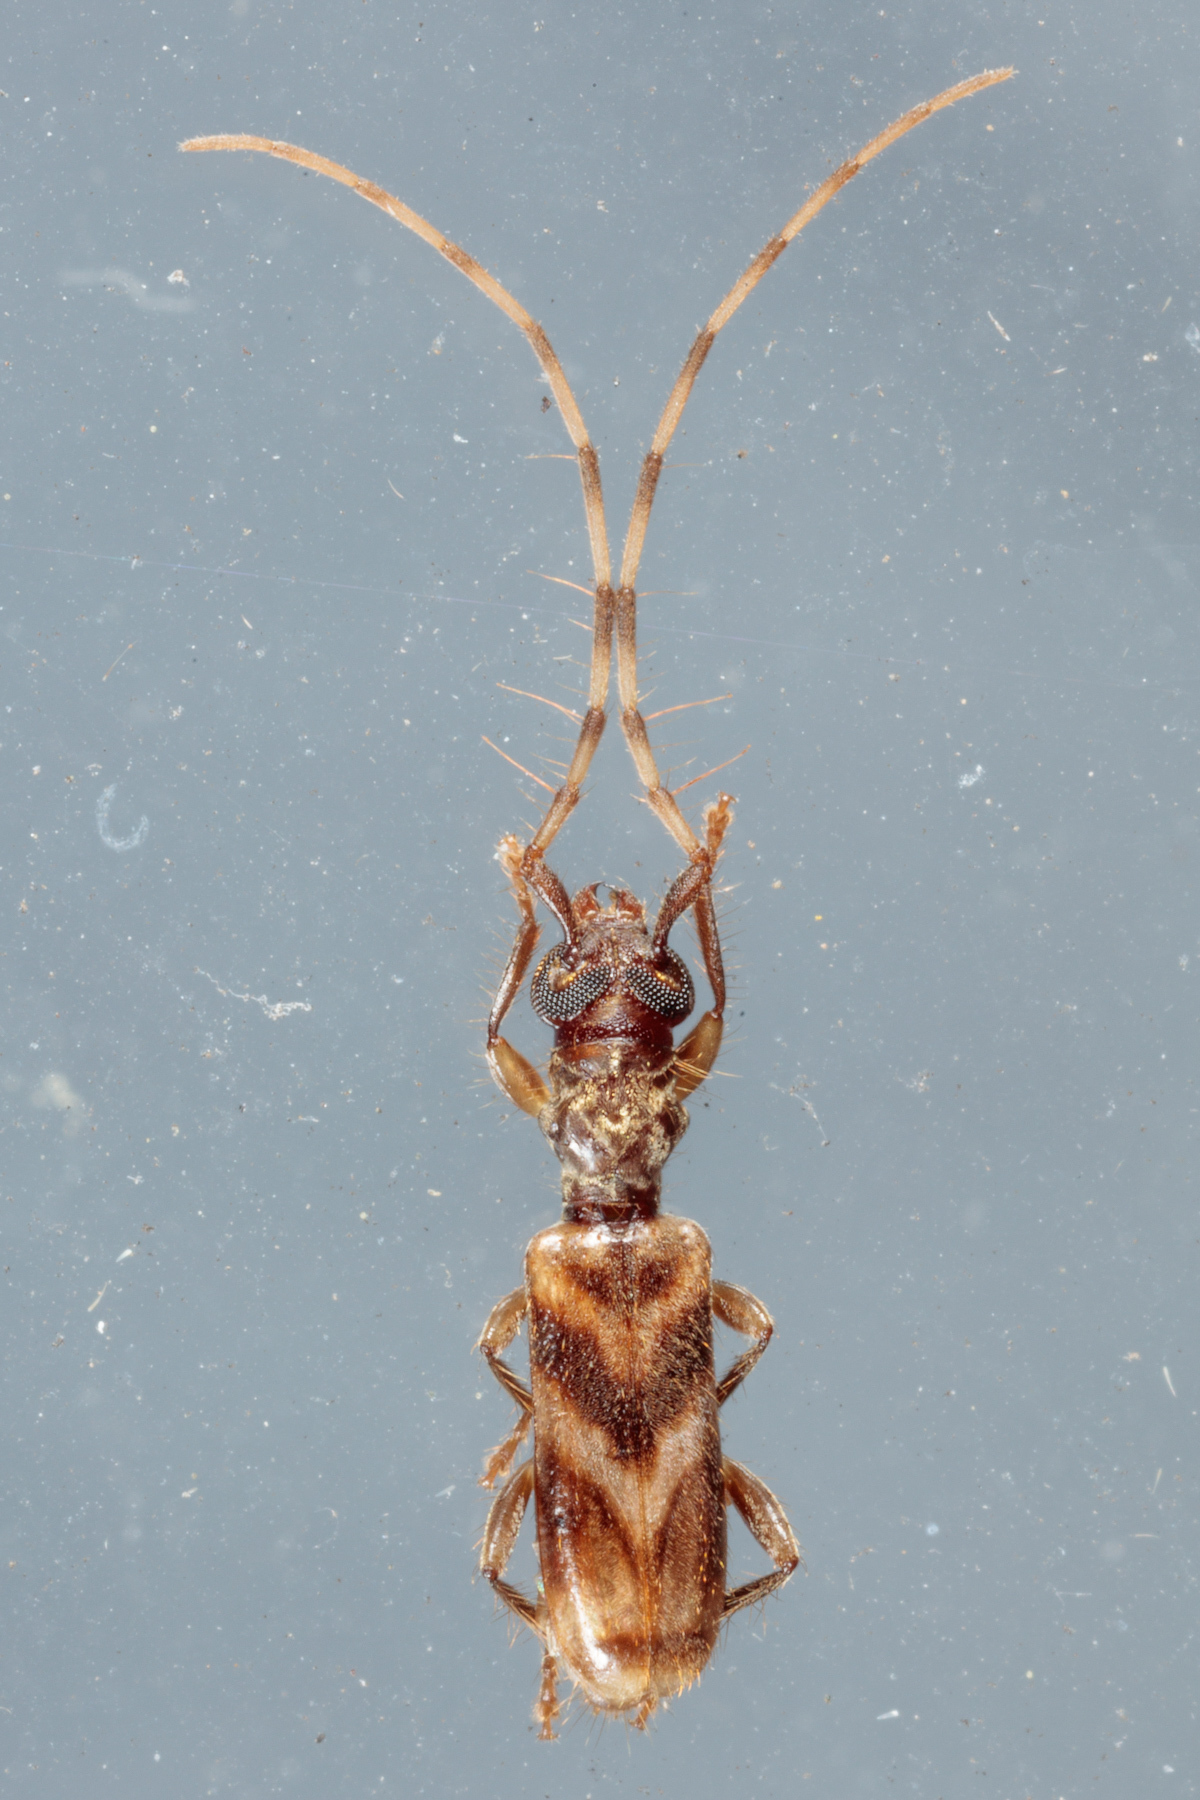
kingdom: Animalia
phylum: Arthropoda
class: Insecta
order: Coleoptera
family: Cerambycidae
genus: Stenhomalus
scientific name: Stenhomalus taiwanus
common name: Taiwan slender longhorned beetle
